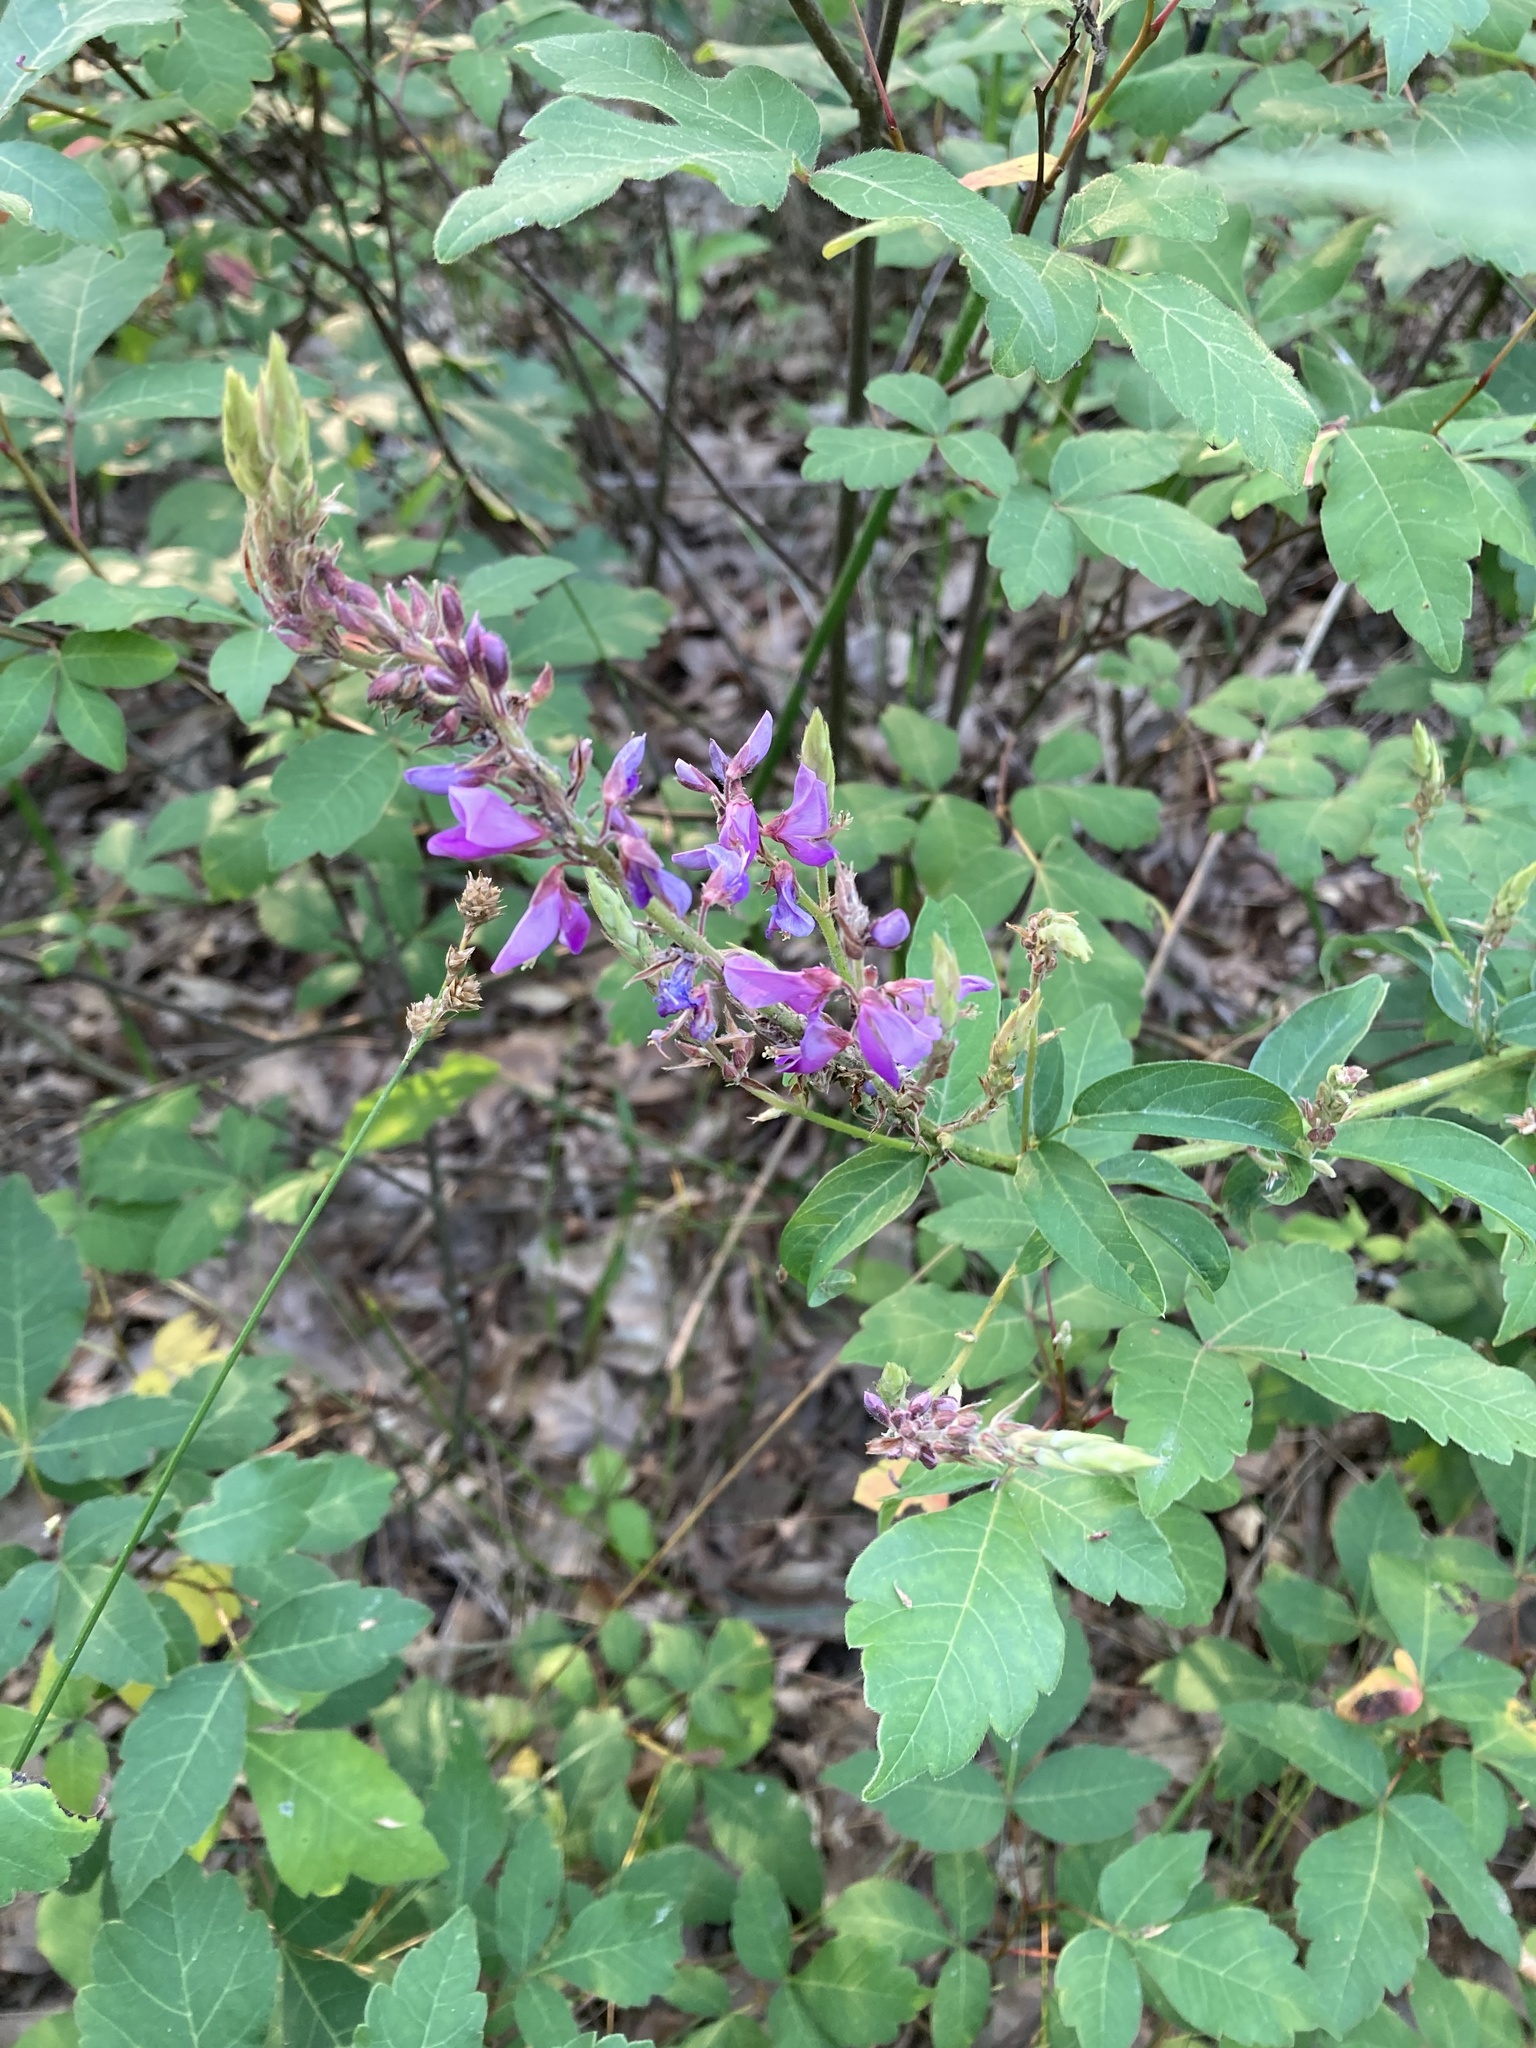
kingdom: Plantae
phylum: Tracheophyta
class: Magnoliopsida
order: Fabales
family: Fabaceae
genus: Desmodium
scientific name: Desmodium canadense
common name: Canada tick-trefoil
